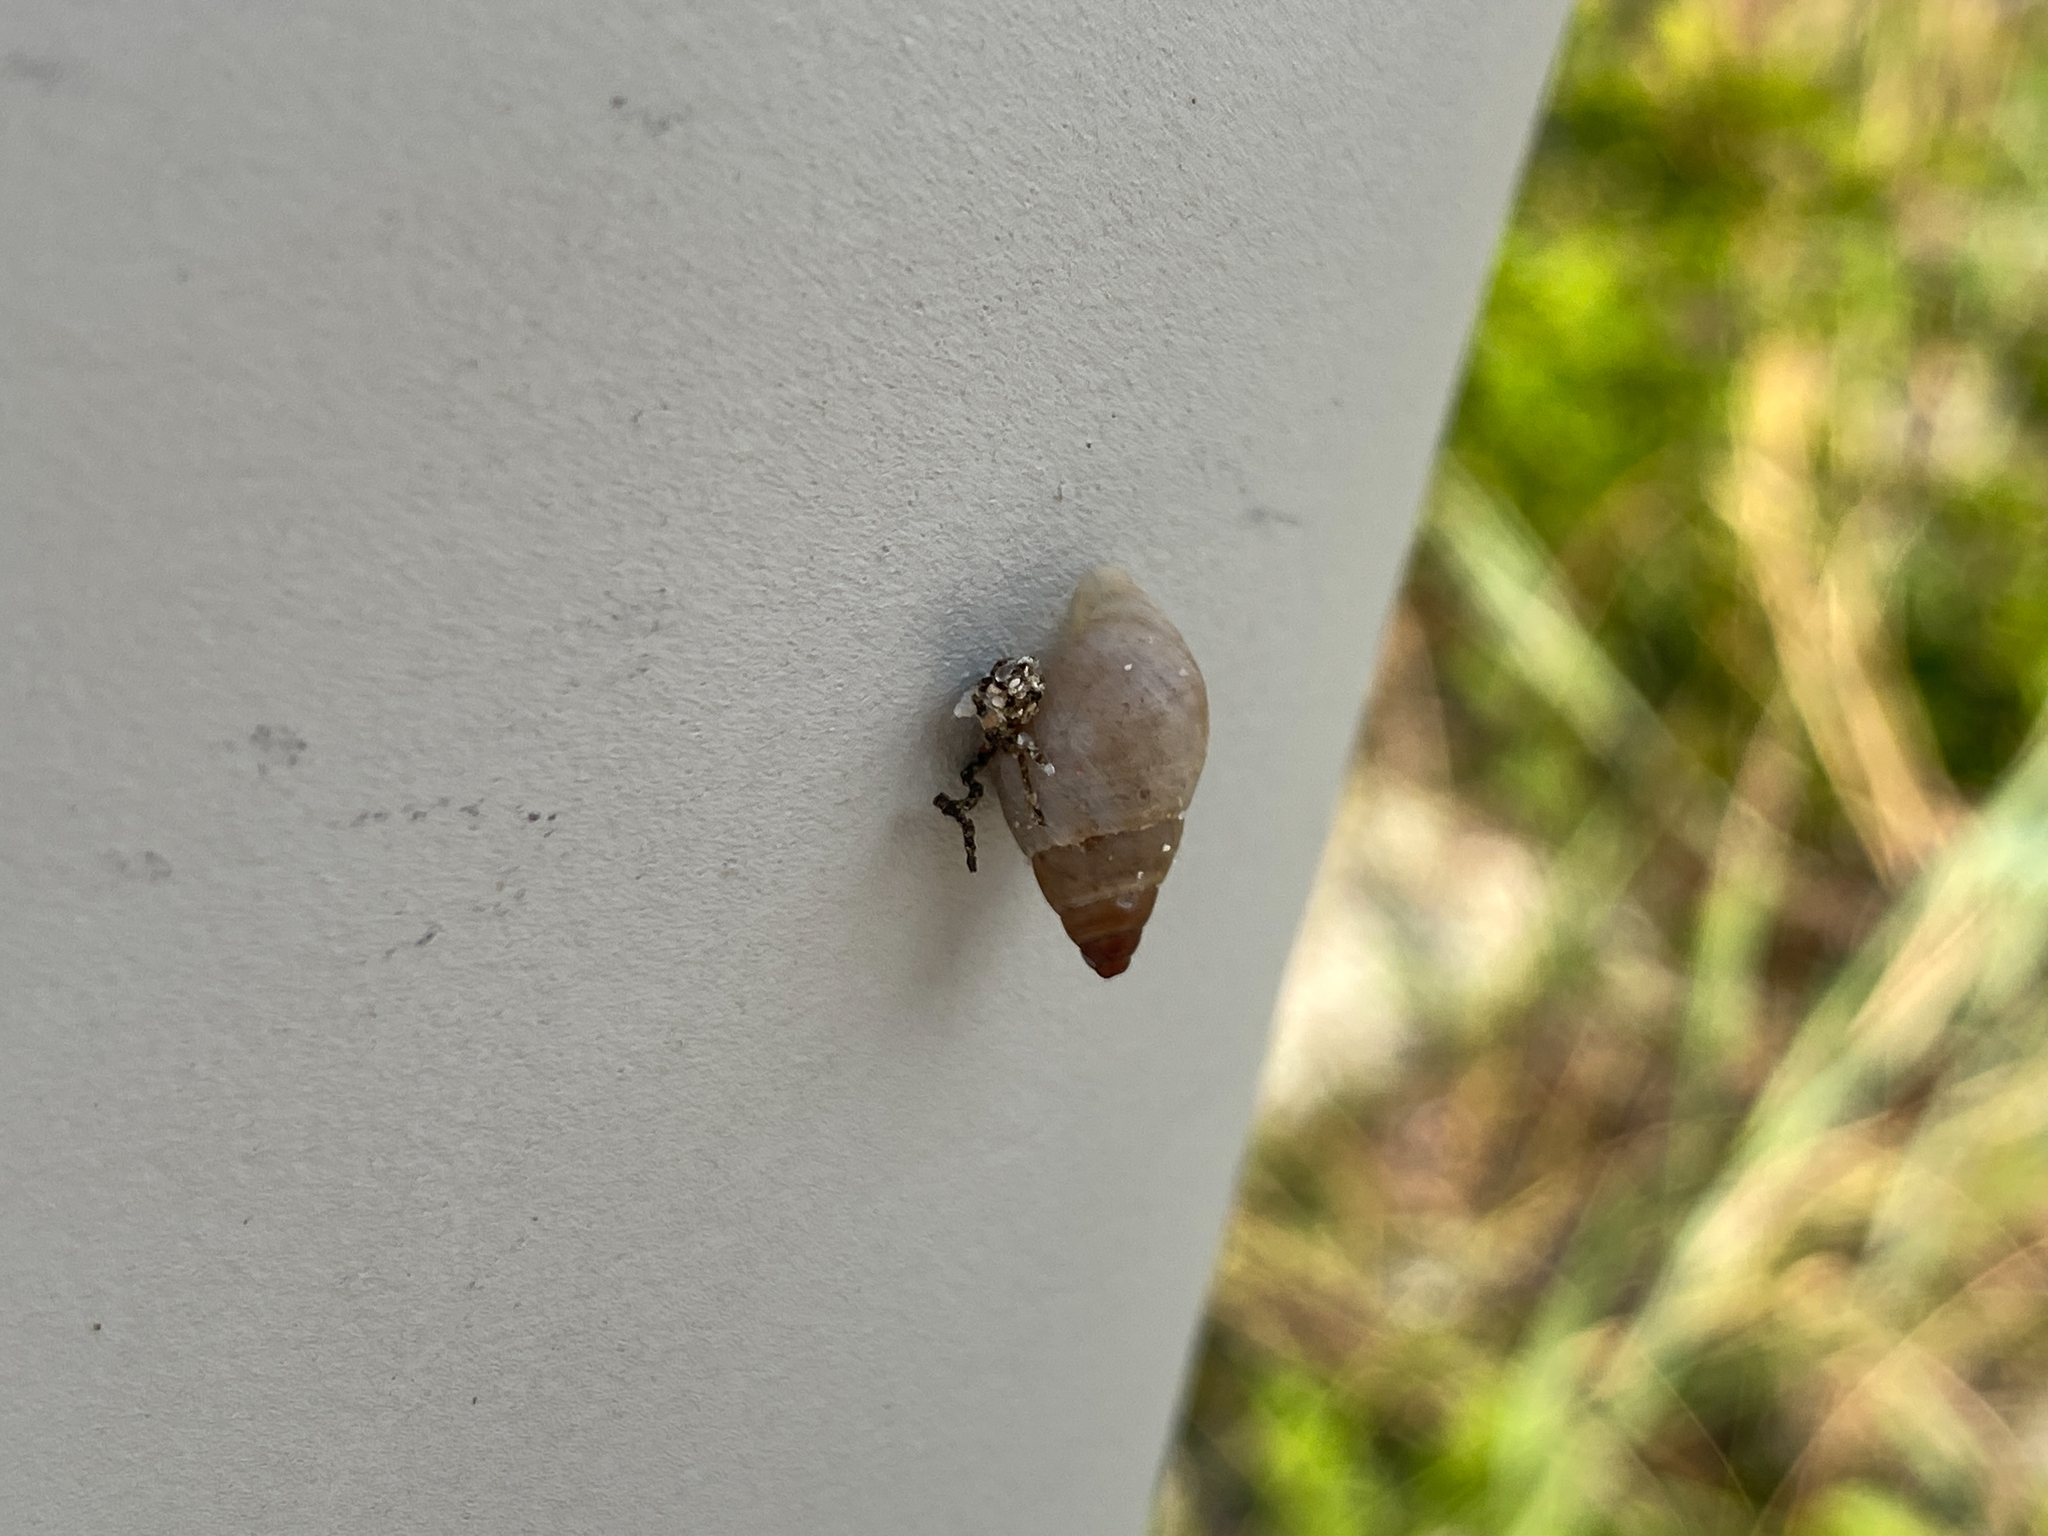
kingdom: Animalia
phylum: Mollusca
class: Gastropoda
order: Stylommatophora
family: Bulimulidae
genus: Bulimulus
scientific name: Bulimulus guadalupensis
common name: West indian bulimulus
